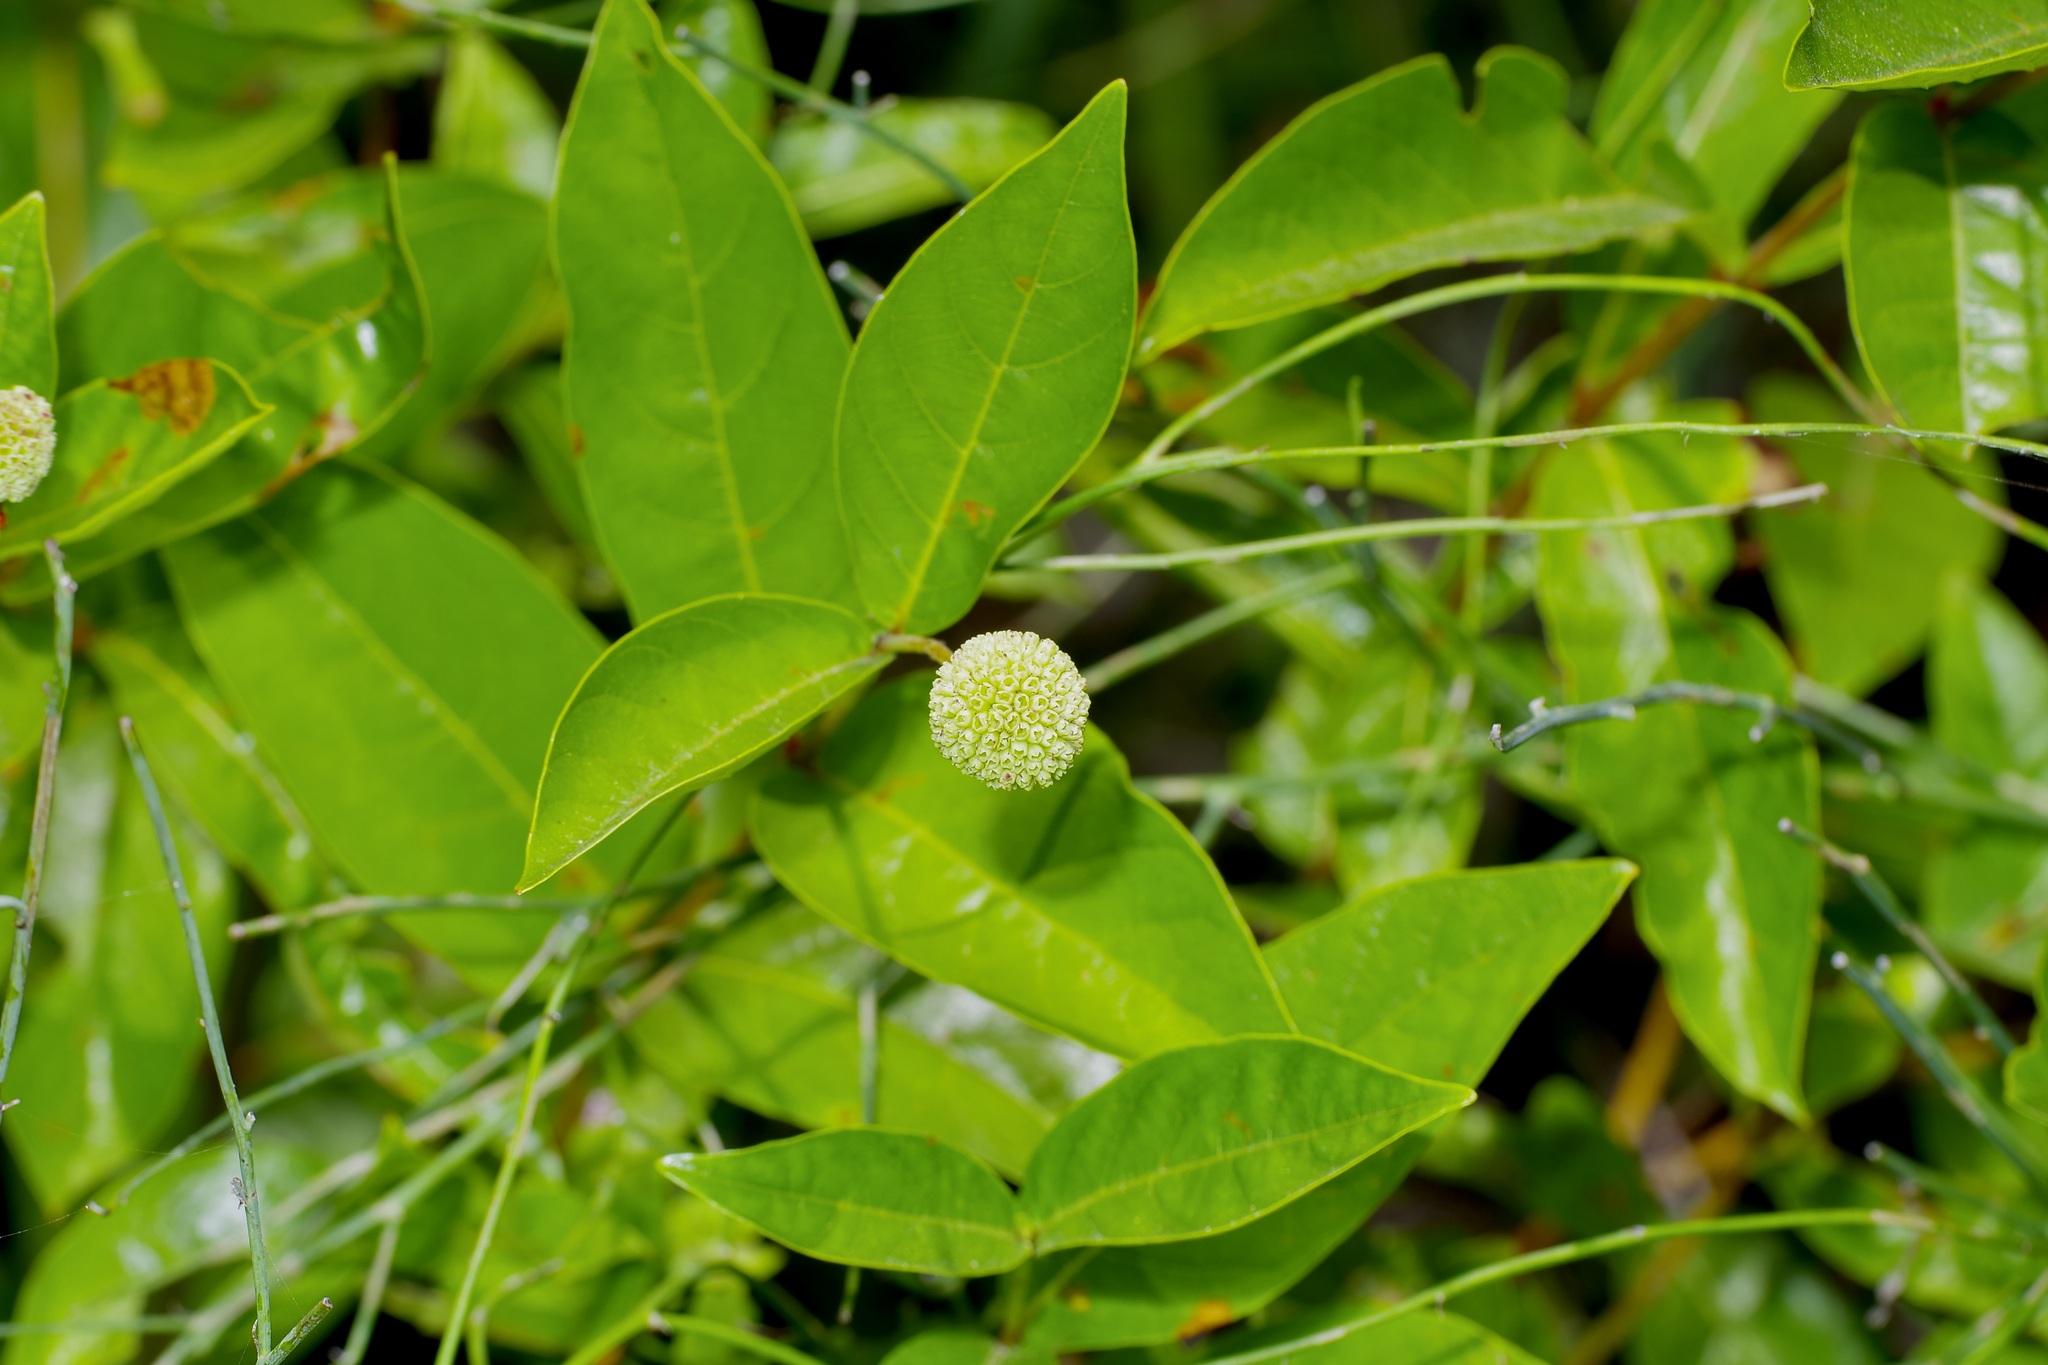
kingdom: Plantae
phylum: Tracheophyta
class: Magnoliopsida
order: Gentianales
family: Rubiaceae
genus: Cephalanthus
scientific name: Cephalanthus occidentalis
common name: Button-willow
